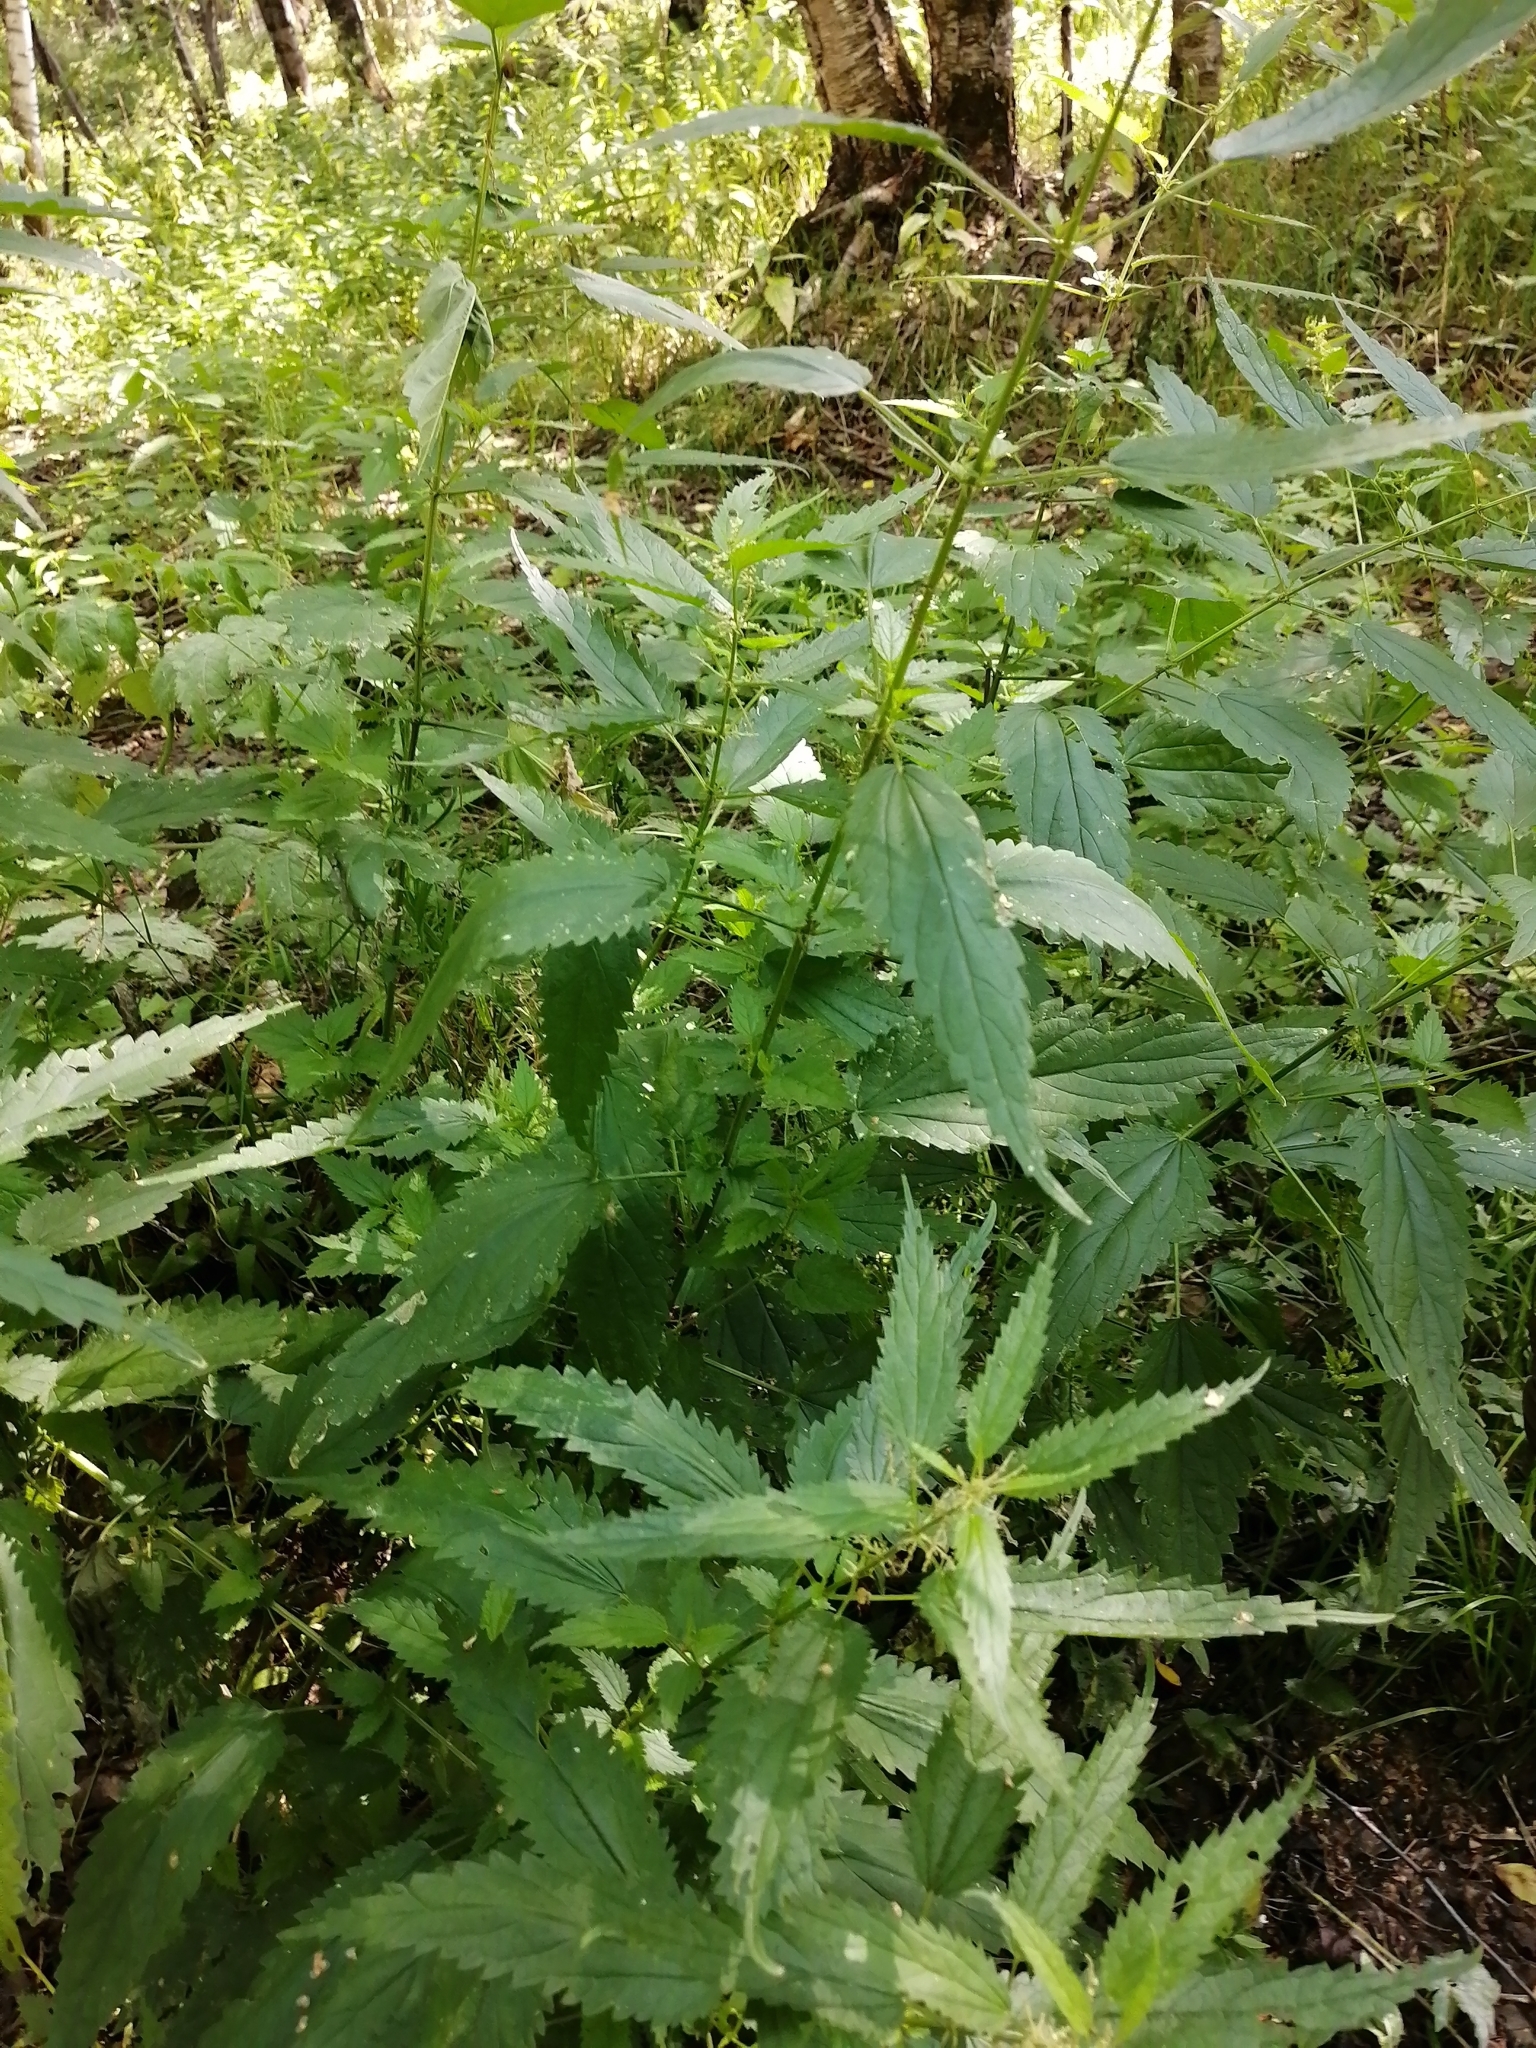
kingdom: Plantae
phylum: Tracheophyta
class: Magnoliopsida
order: Rosales
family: Urticaceae
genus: Urtica
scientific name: Urtica dioica
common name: Common nettle
